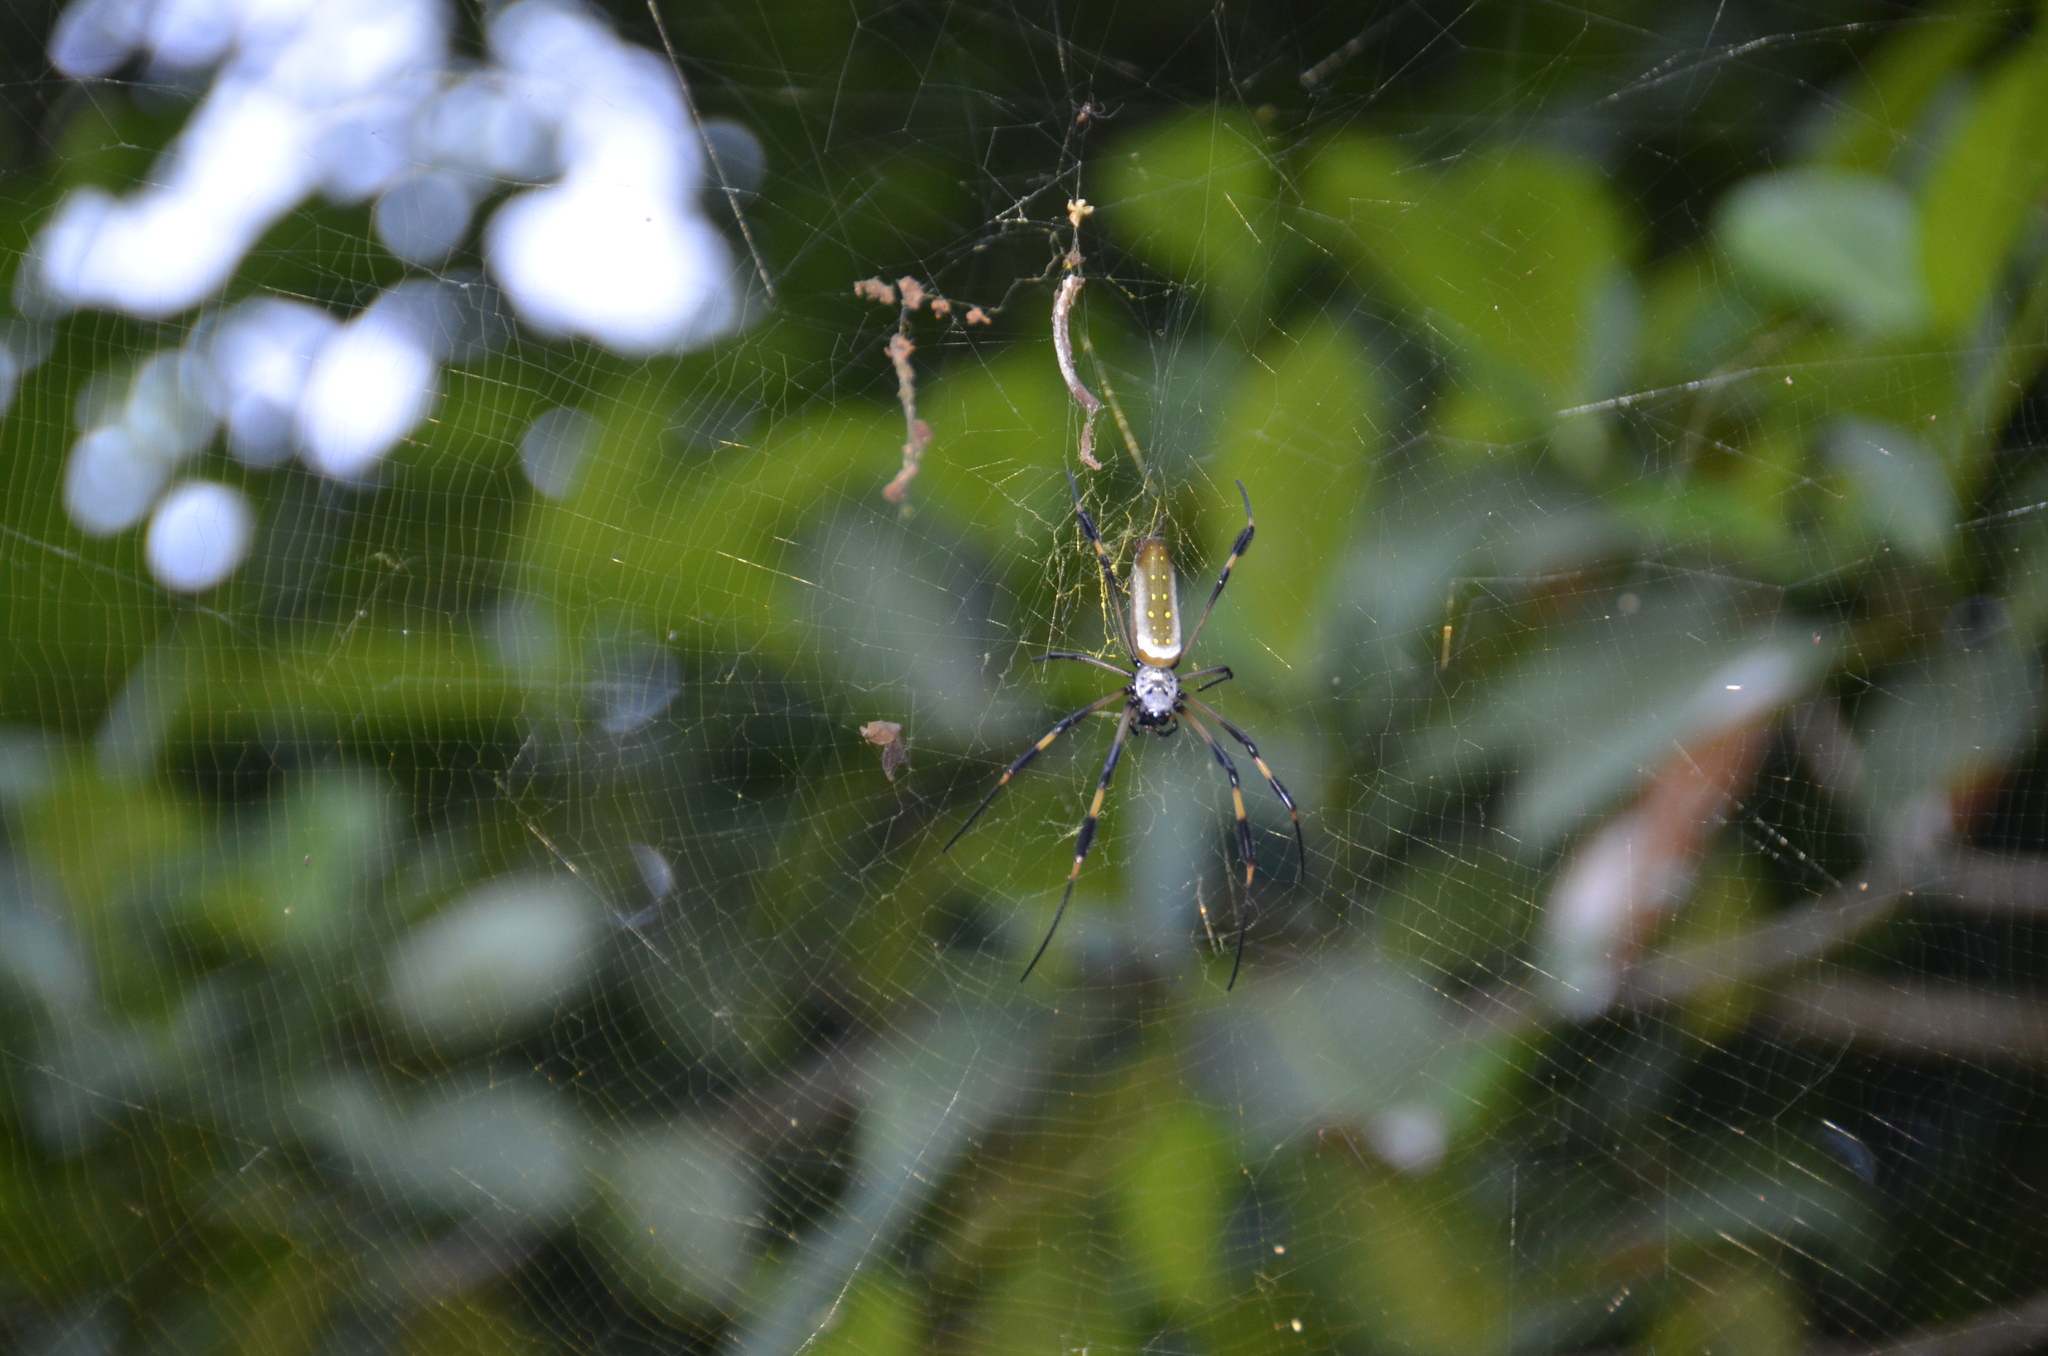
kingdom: Animalia
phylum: Arthropoda
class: Arachnida
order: Araneae
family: Araneidae
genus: Trichonephila
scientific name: Trichonephila clavipes
